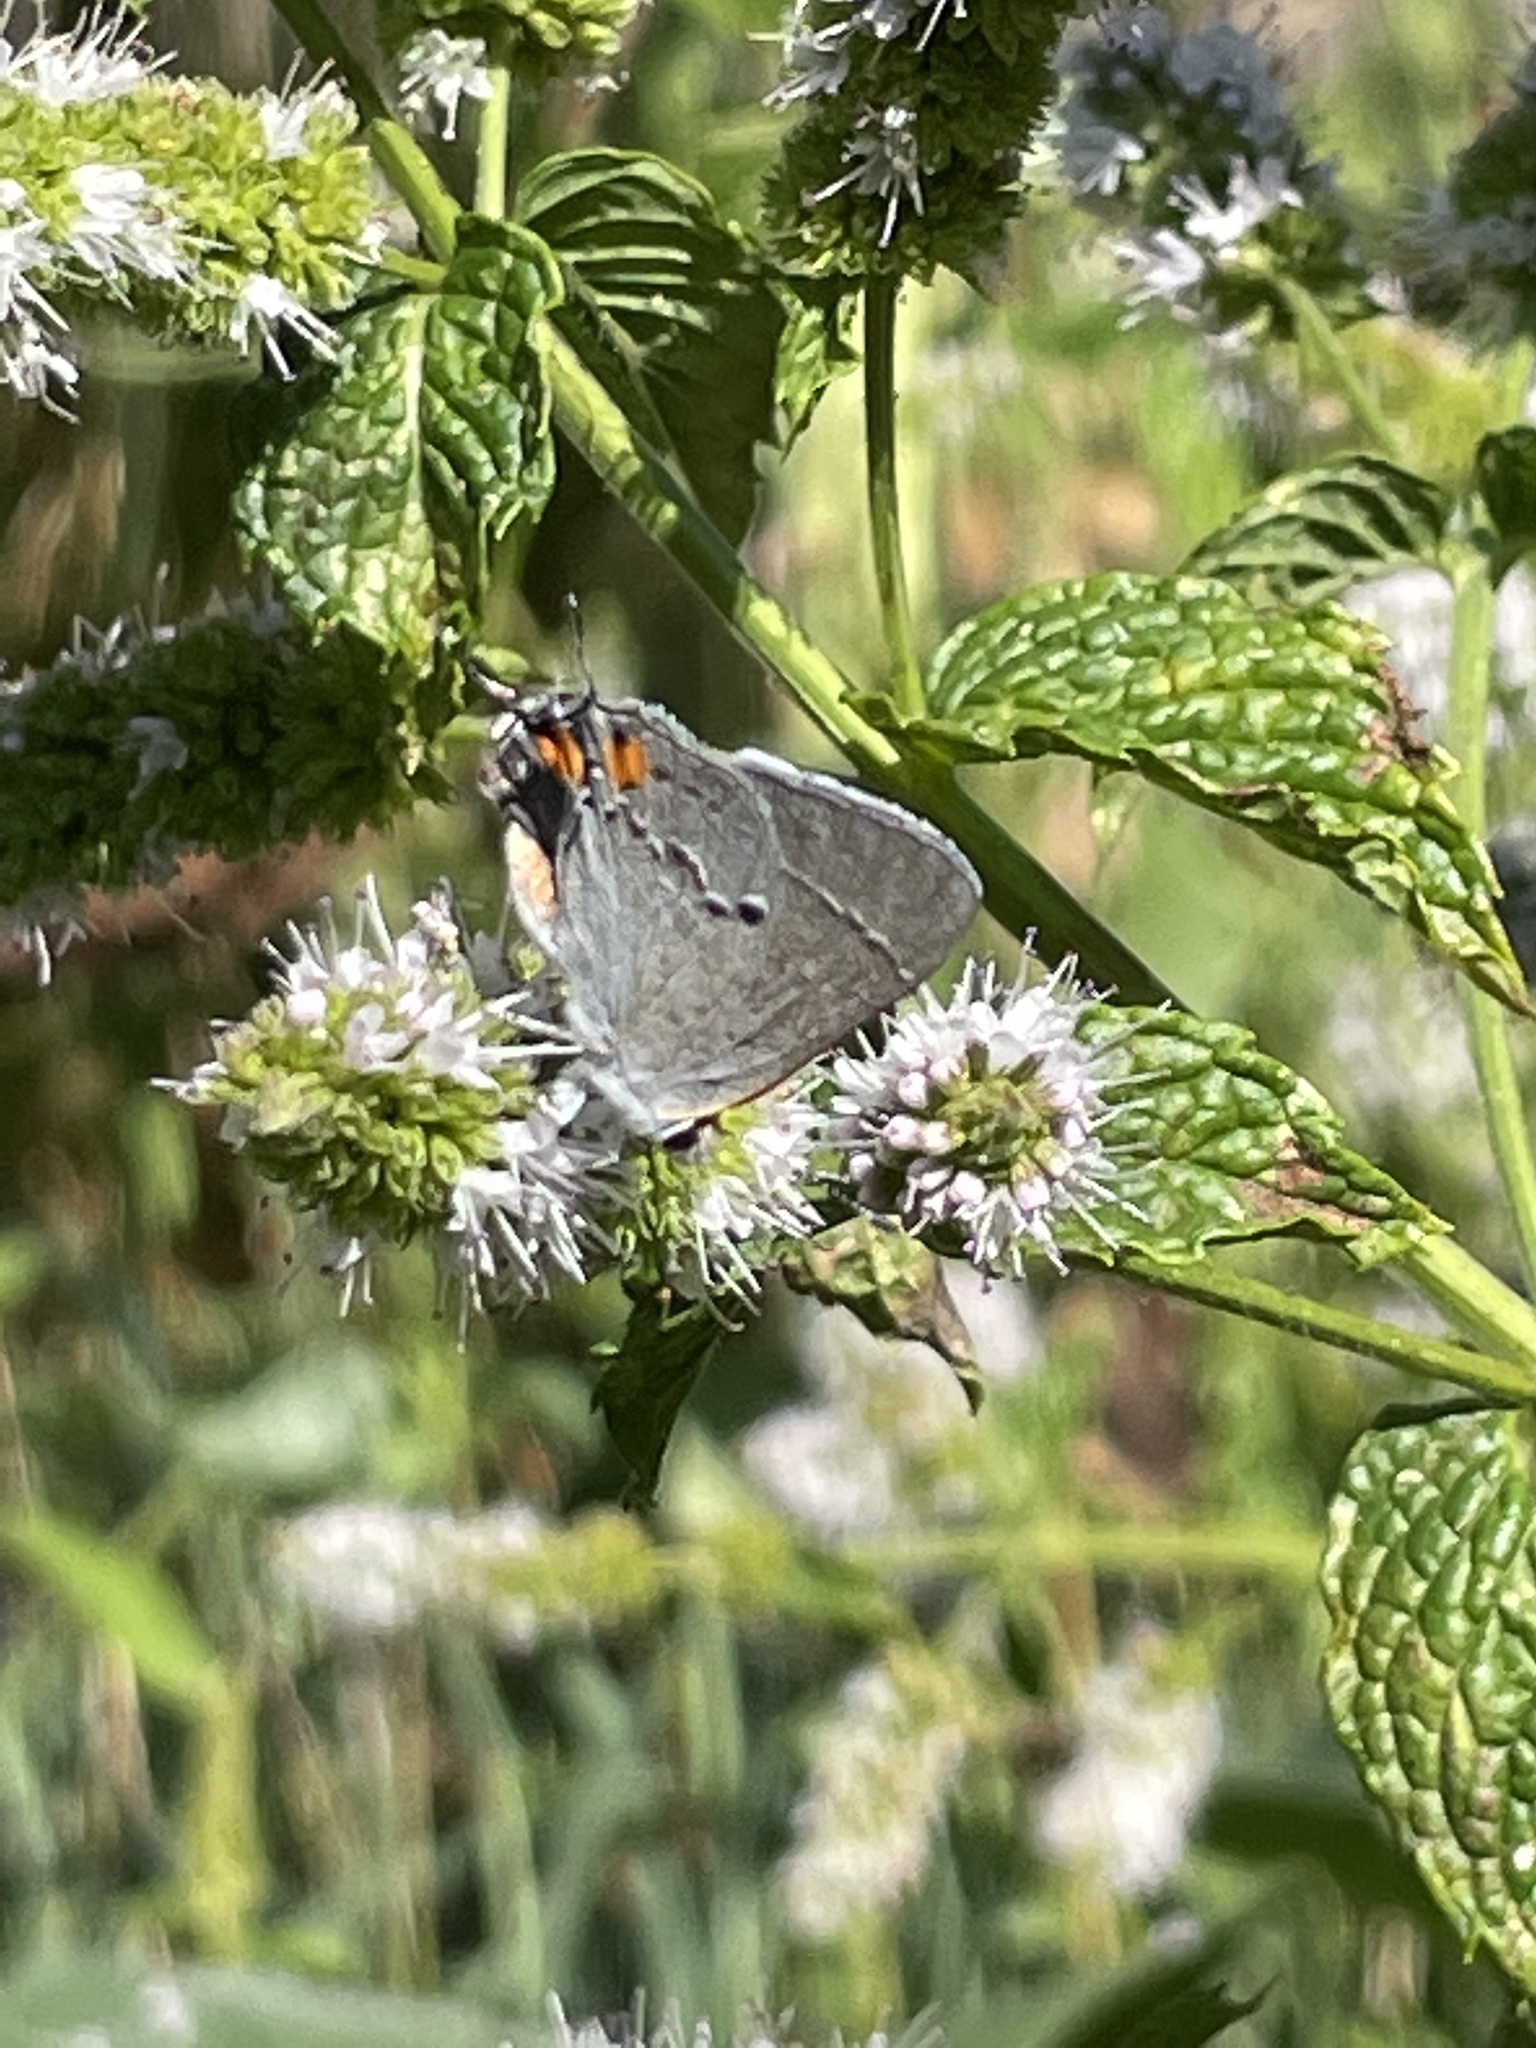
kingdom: Animalia
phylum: Arthropoda
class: Insecta
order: Lepidoptera
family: Lycaenidae
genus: Strymon
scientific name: Strymon melinus
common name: Gray hairstreak
